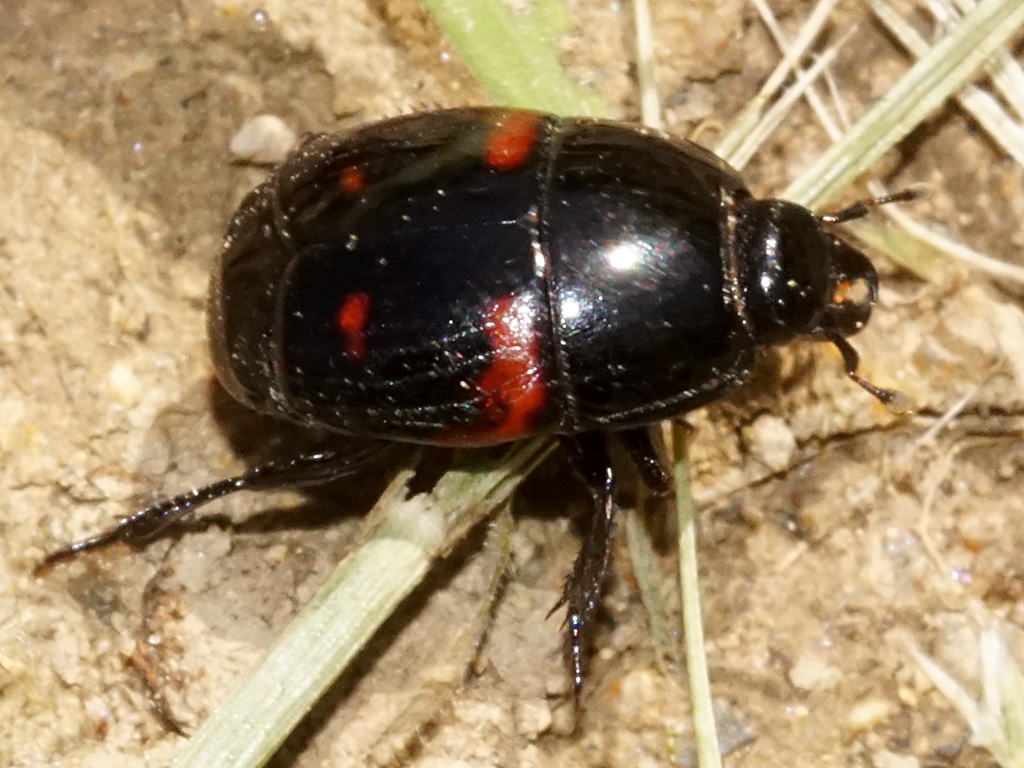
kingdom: Animalia
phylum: Arthropoda
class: Insecta
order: Coleoptera
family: Histeridae
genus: Hister
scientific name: Hister quadrimaculatus
